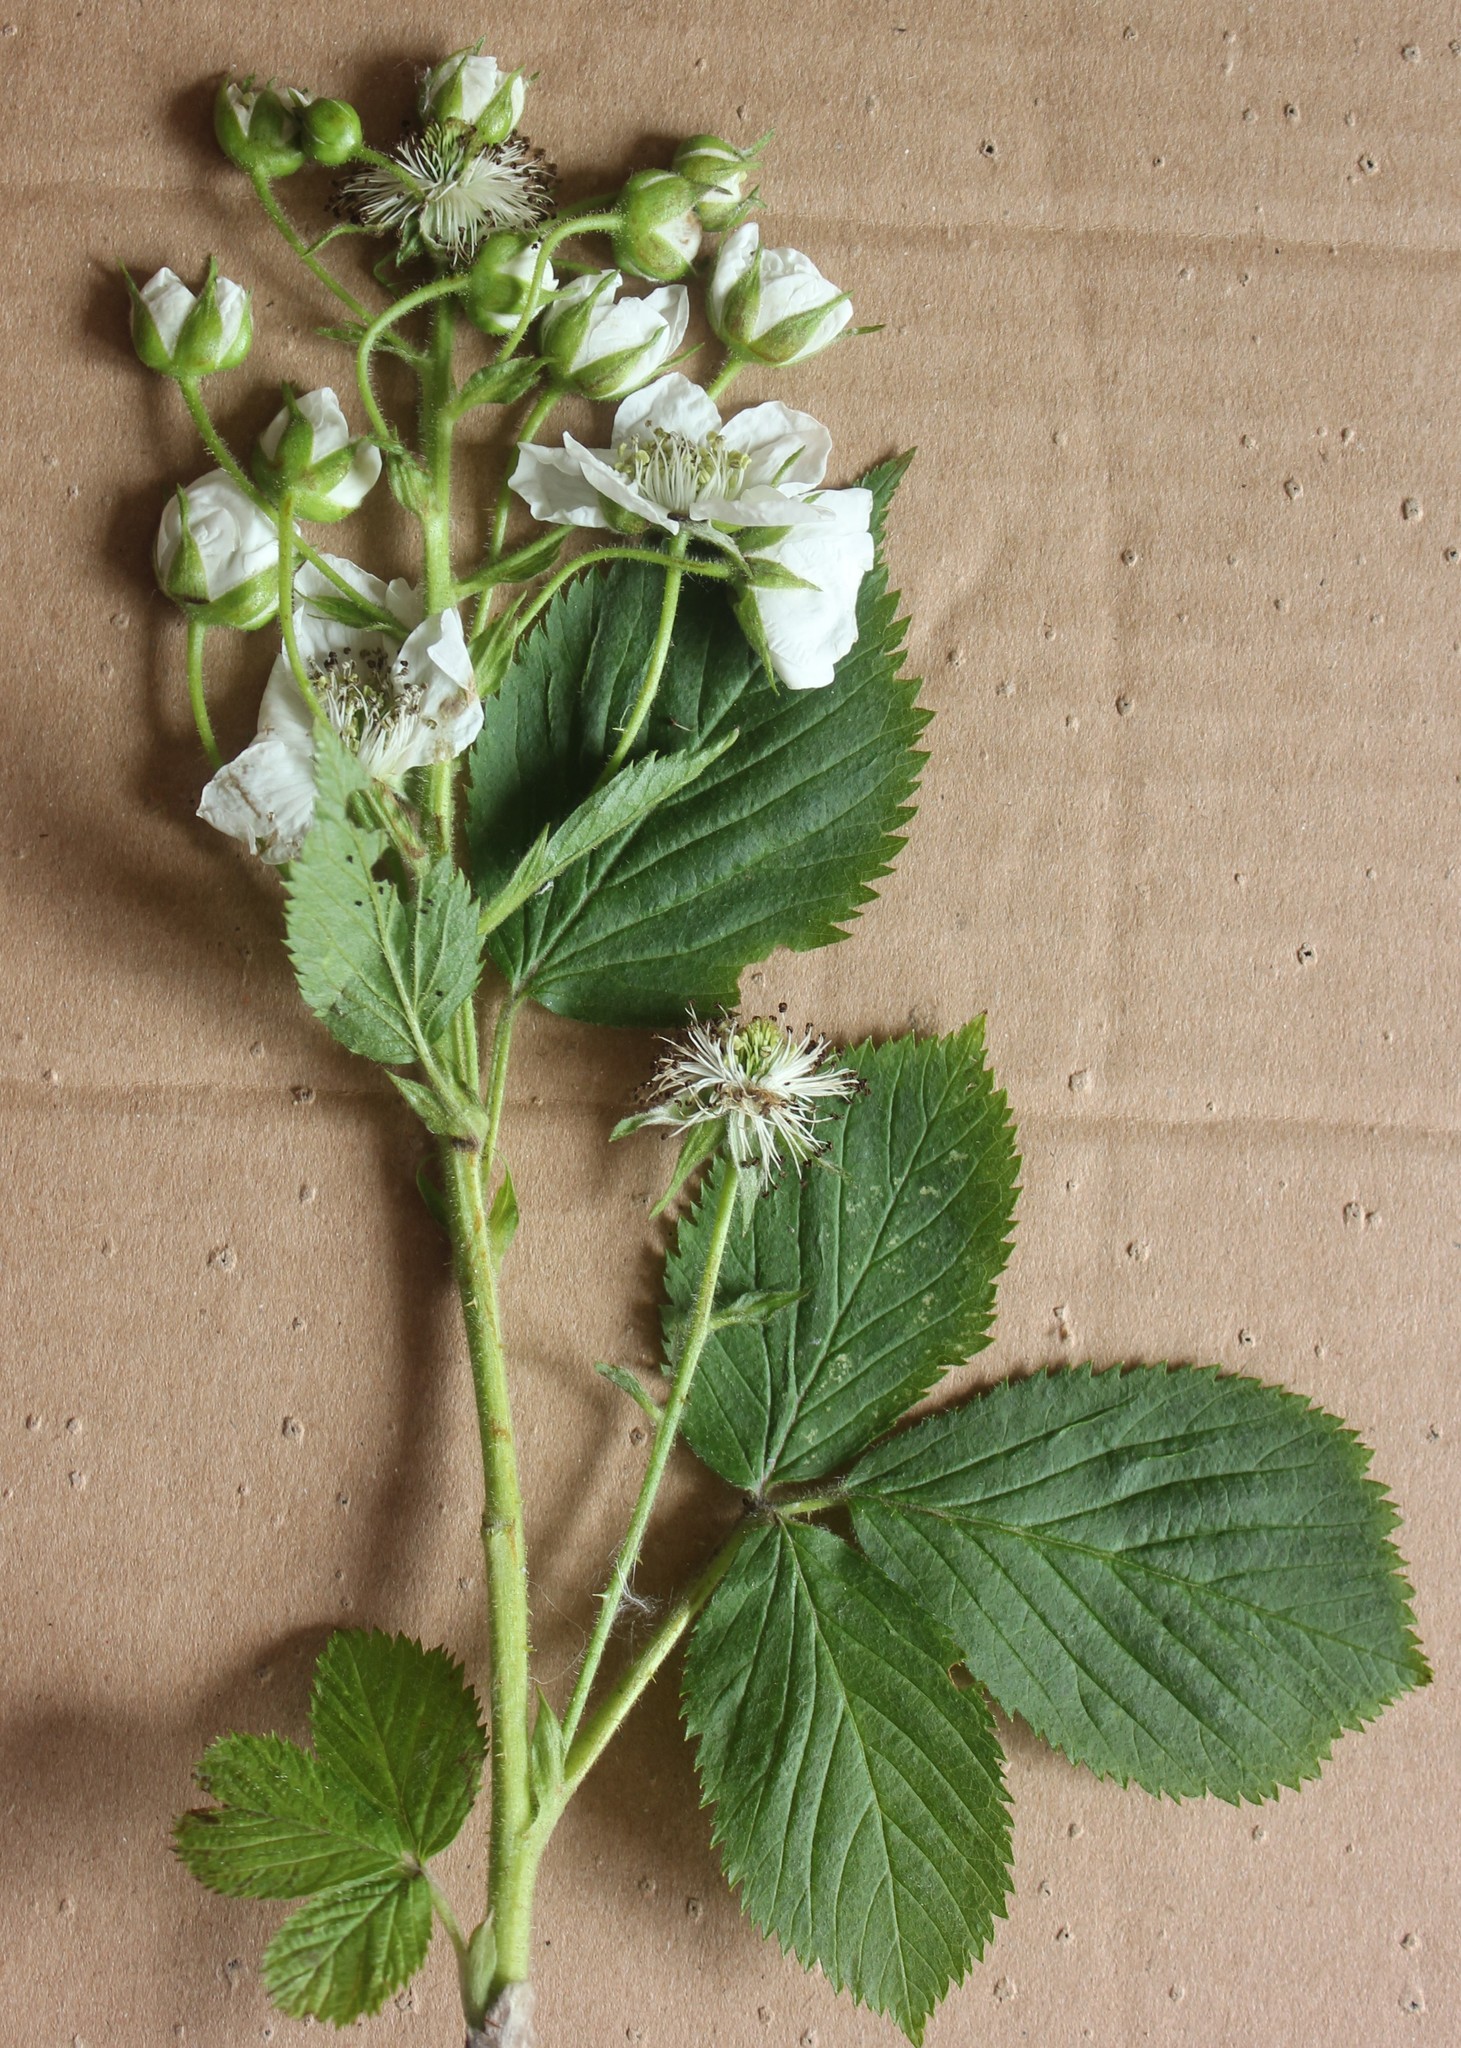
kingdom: Plantae
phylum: Tracheophyta
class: Magnoliopsida
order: Rosales
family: Rosaceae
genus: Rubus
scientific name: Rubus allegheniensis
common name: Allegheny blackberry
